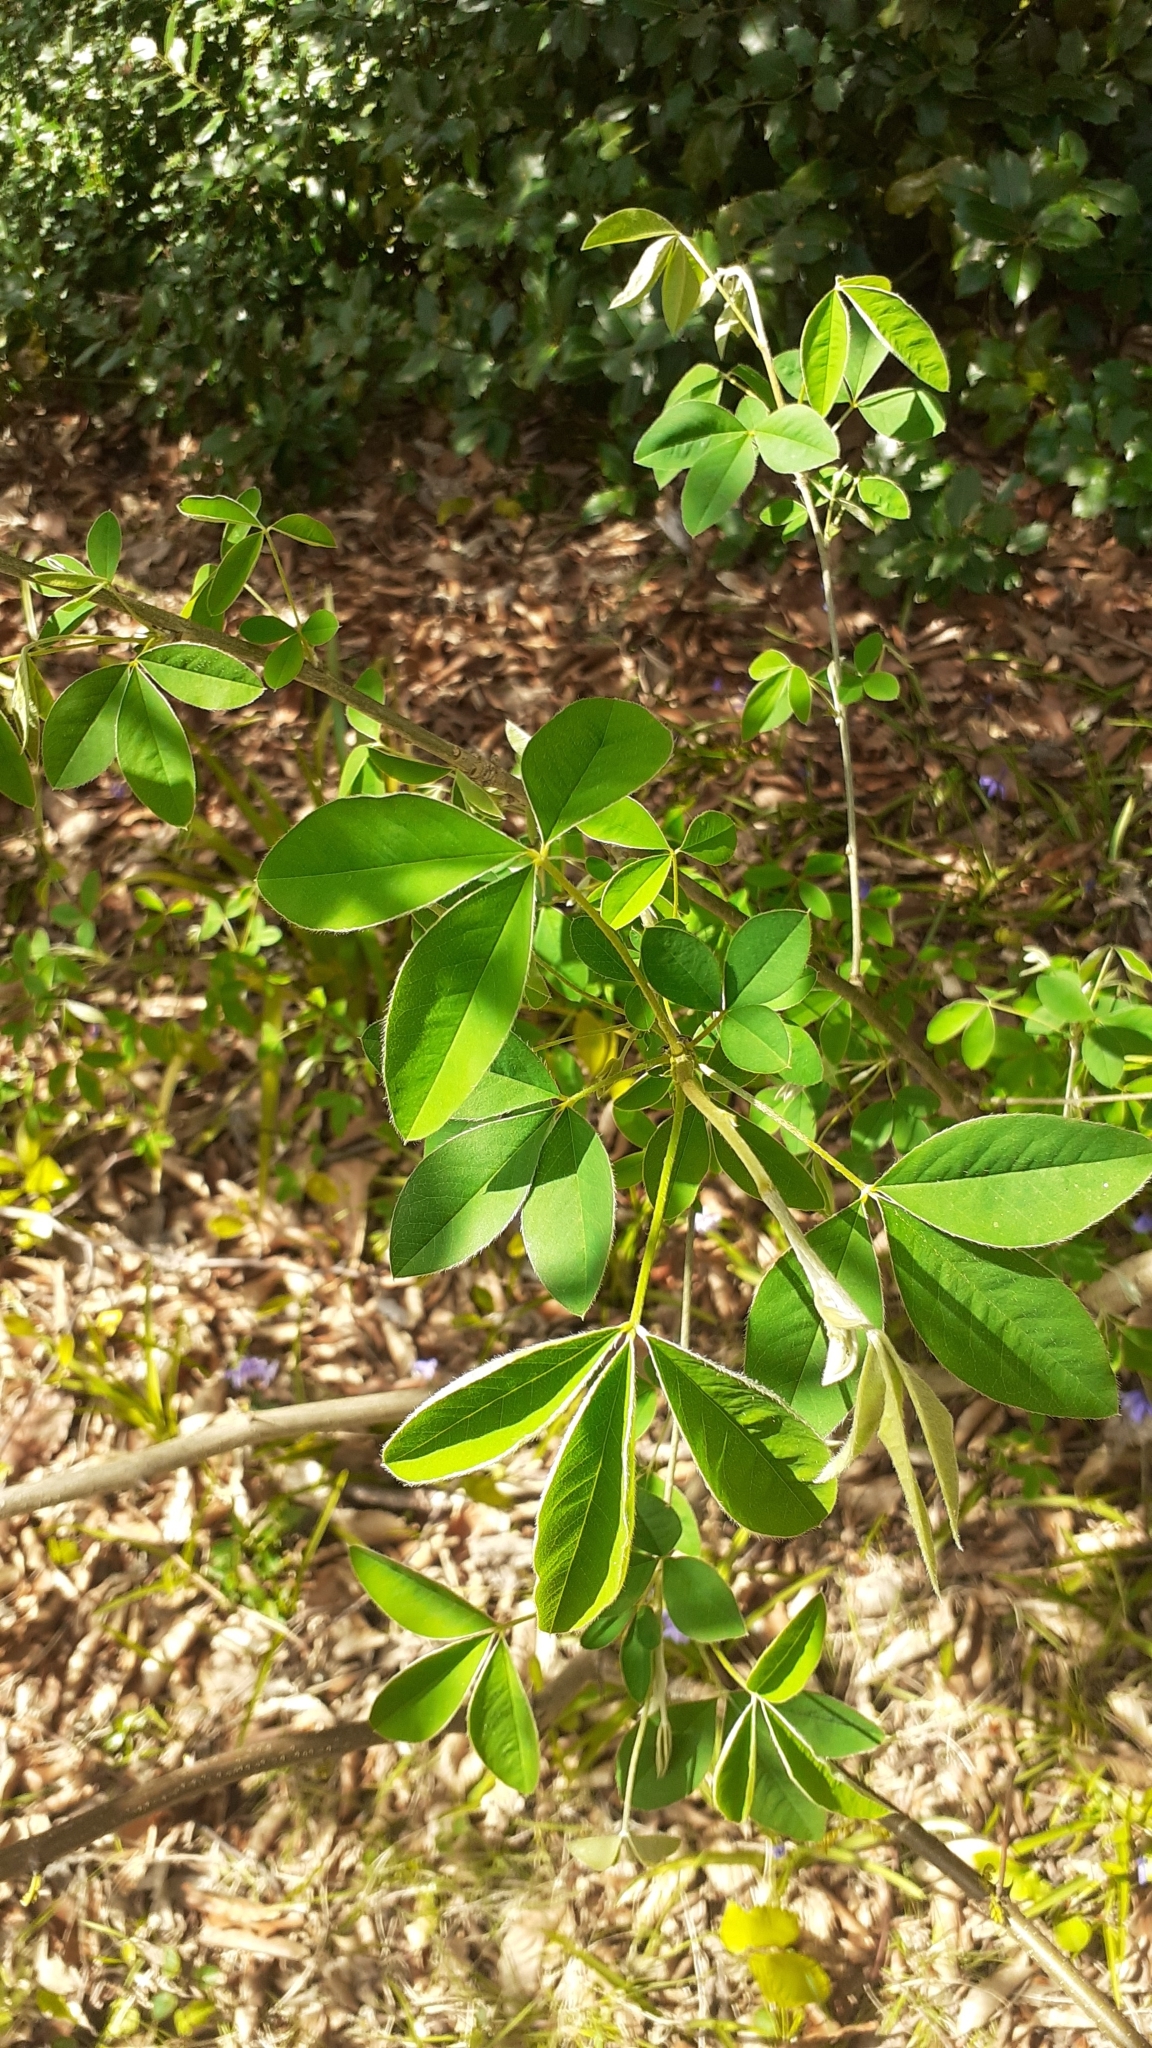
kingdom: Plantae
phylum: Tracheophyta
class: Magnoliopsida
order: Fabales
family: Fabaceae
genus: Laburnum
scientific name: Laburnum anagyroides
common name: Laburnum
